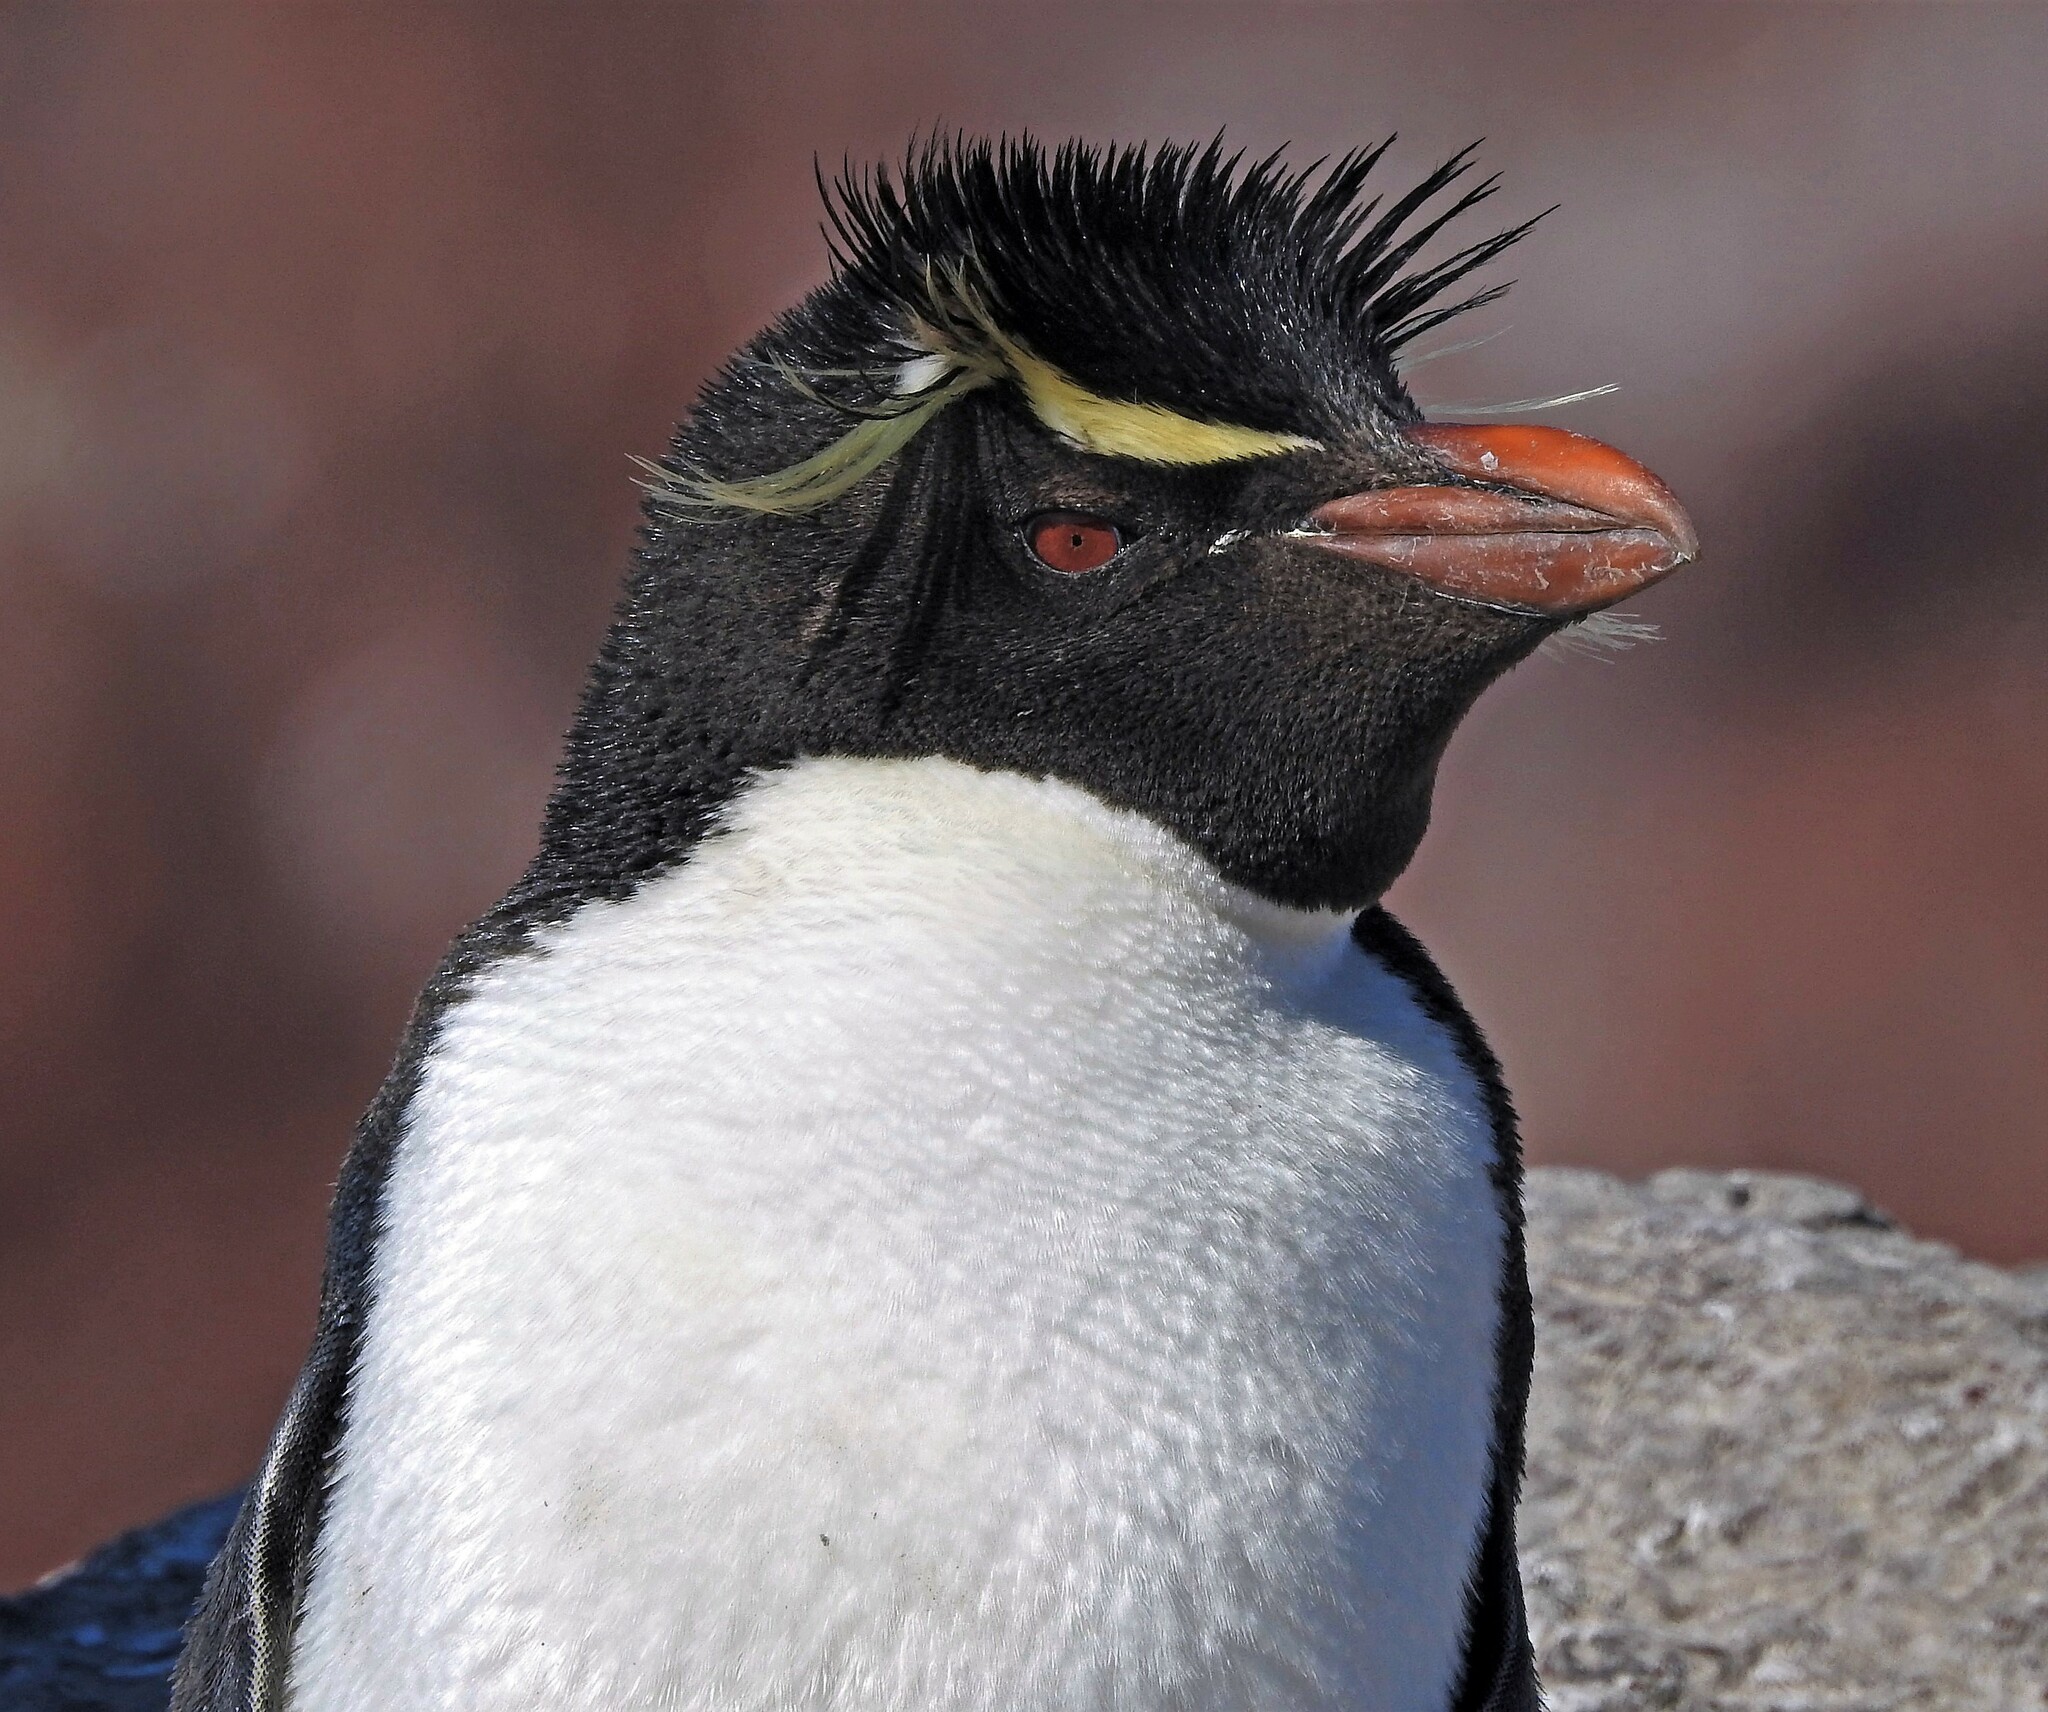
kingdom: Animalia
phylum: Chordata
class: Aves
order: Sphenisciformes
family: Spheniscidae
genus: Eudyptes
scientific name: Eudyptes chrysocome
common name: Southern rockhopper penguin
